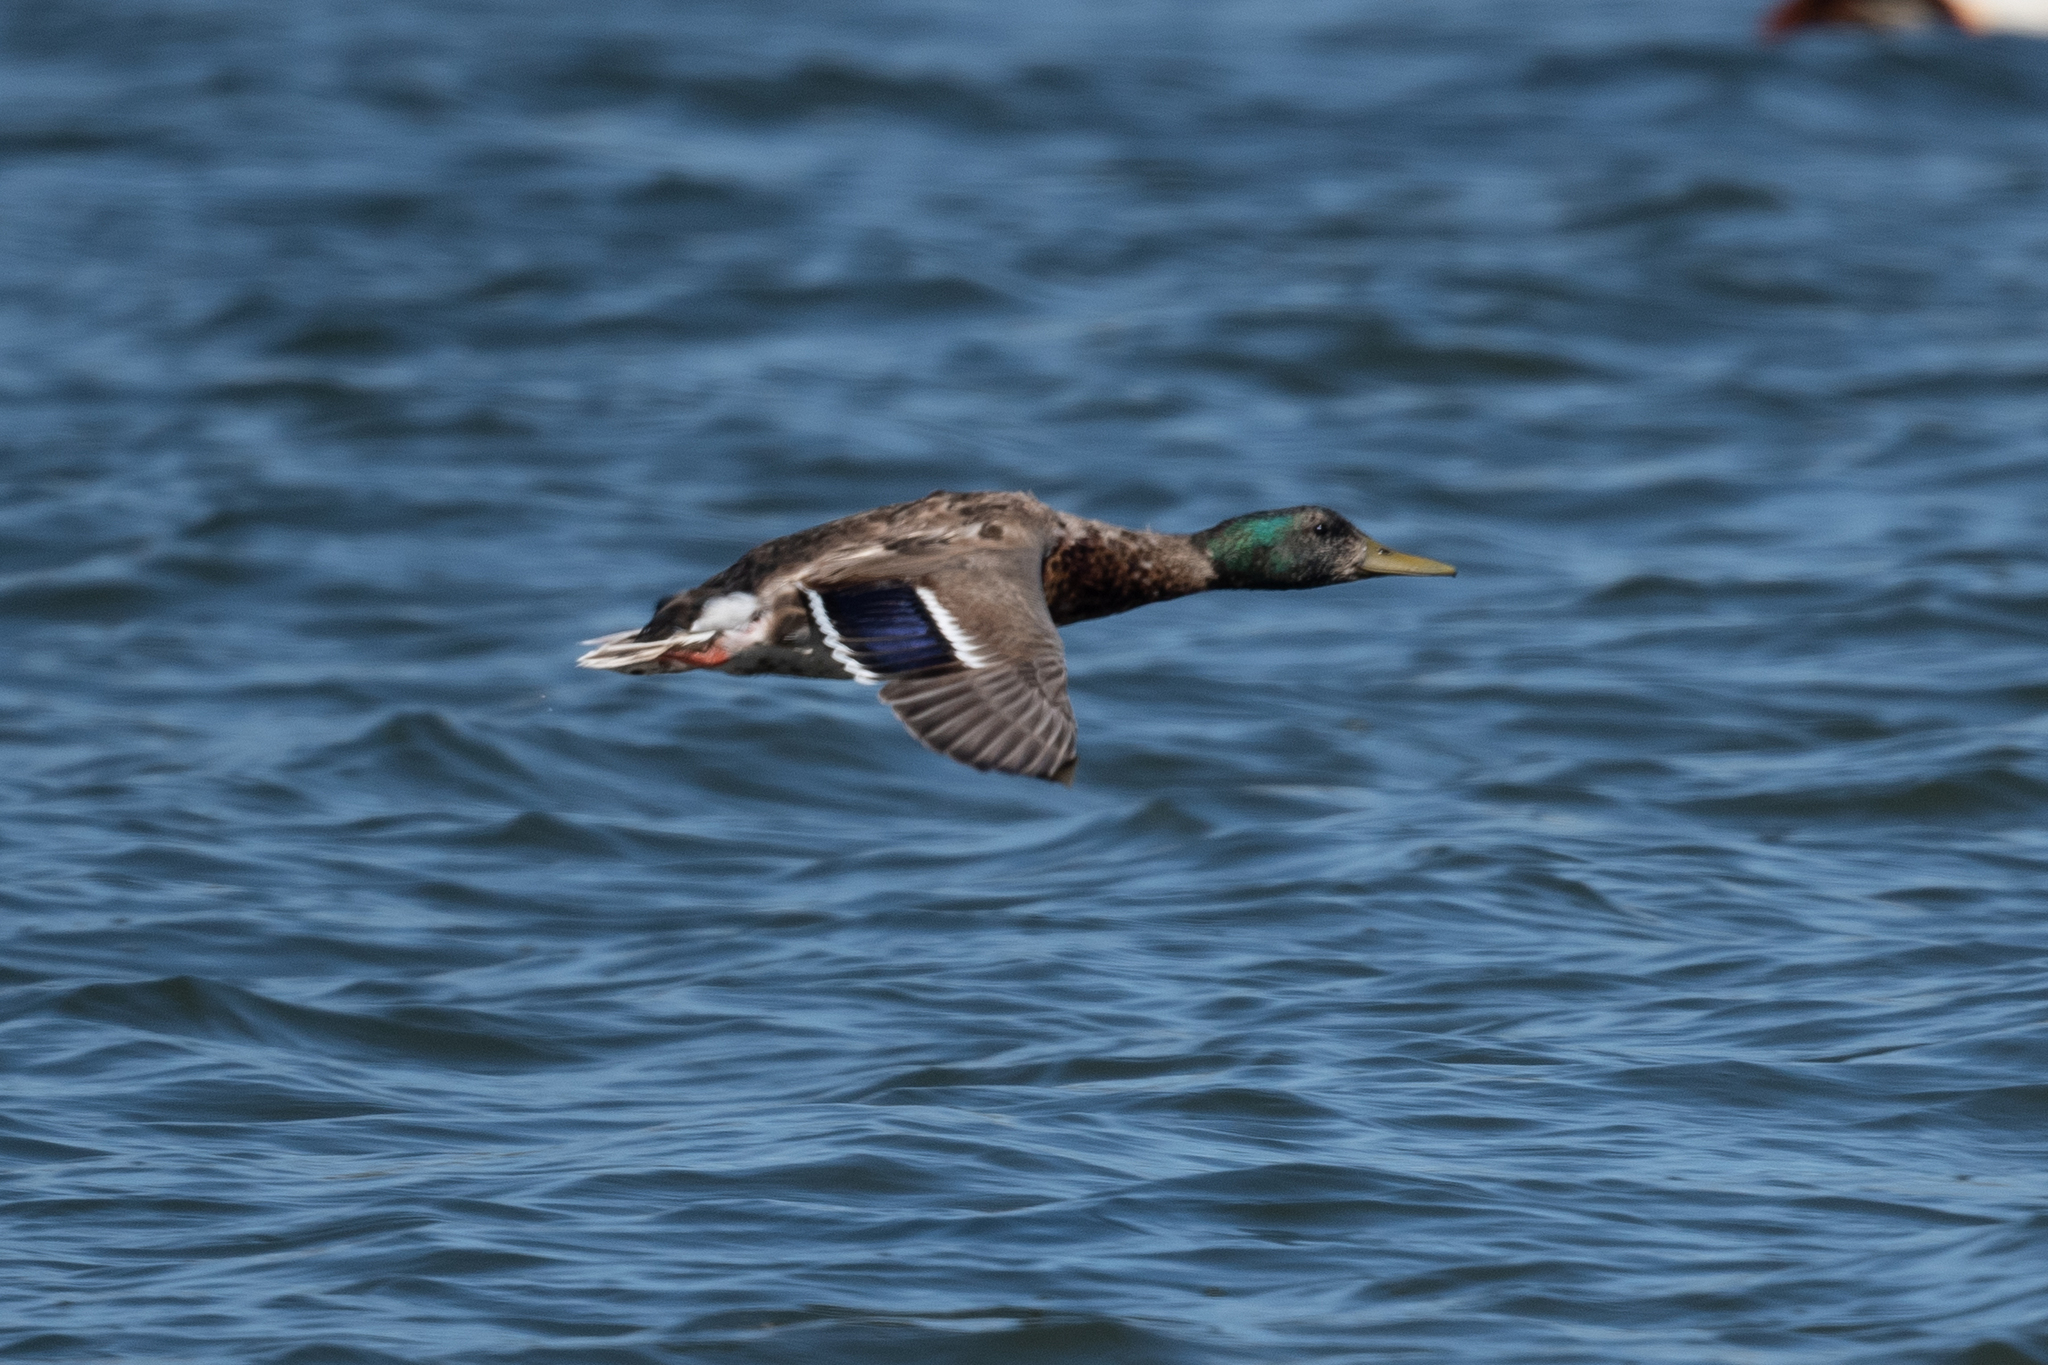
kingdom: Animalia
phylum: Chordata
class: Aves
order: Anseriformes
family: Anatidae
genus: Anas
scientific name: Anas platyrhynchos
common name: Mallard
